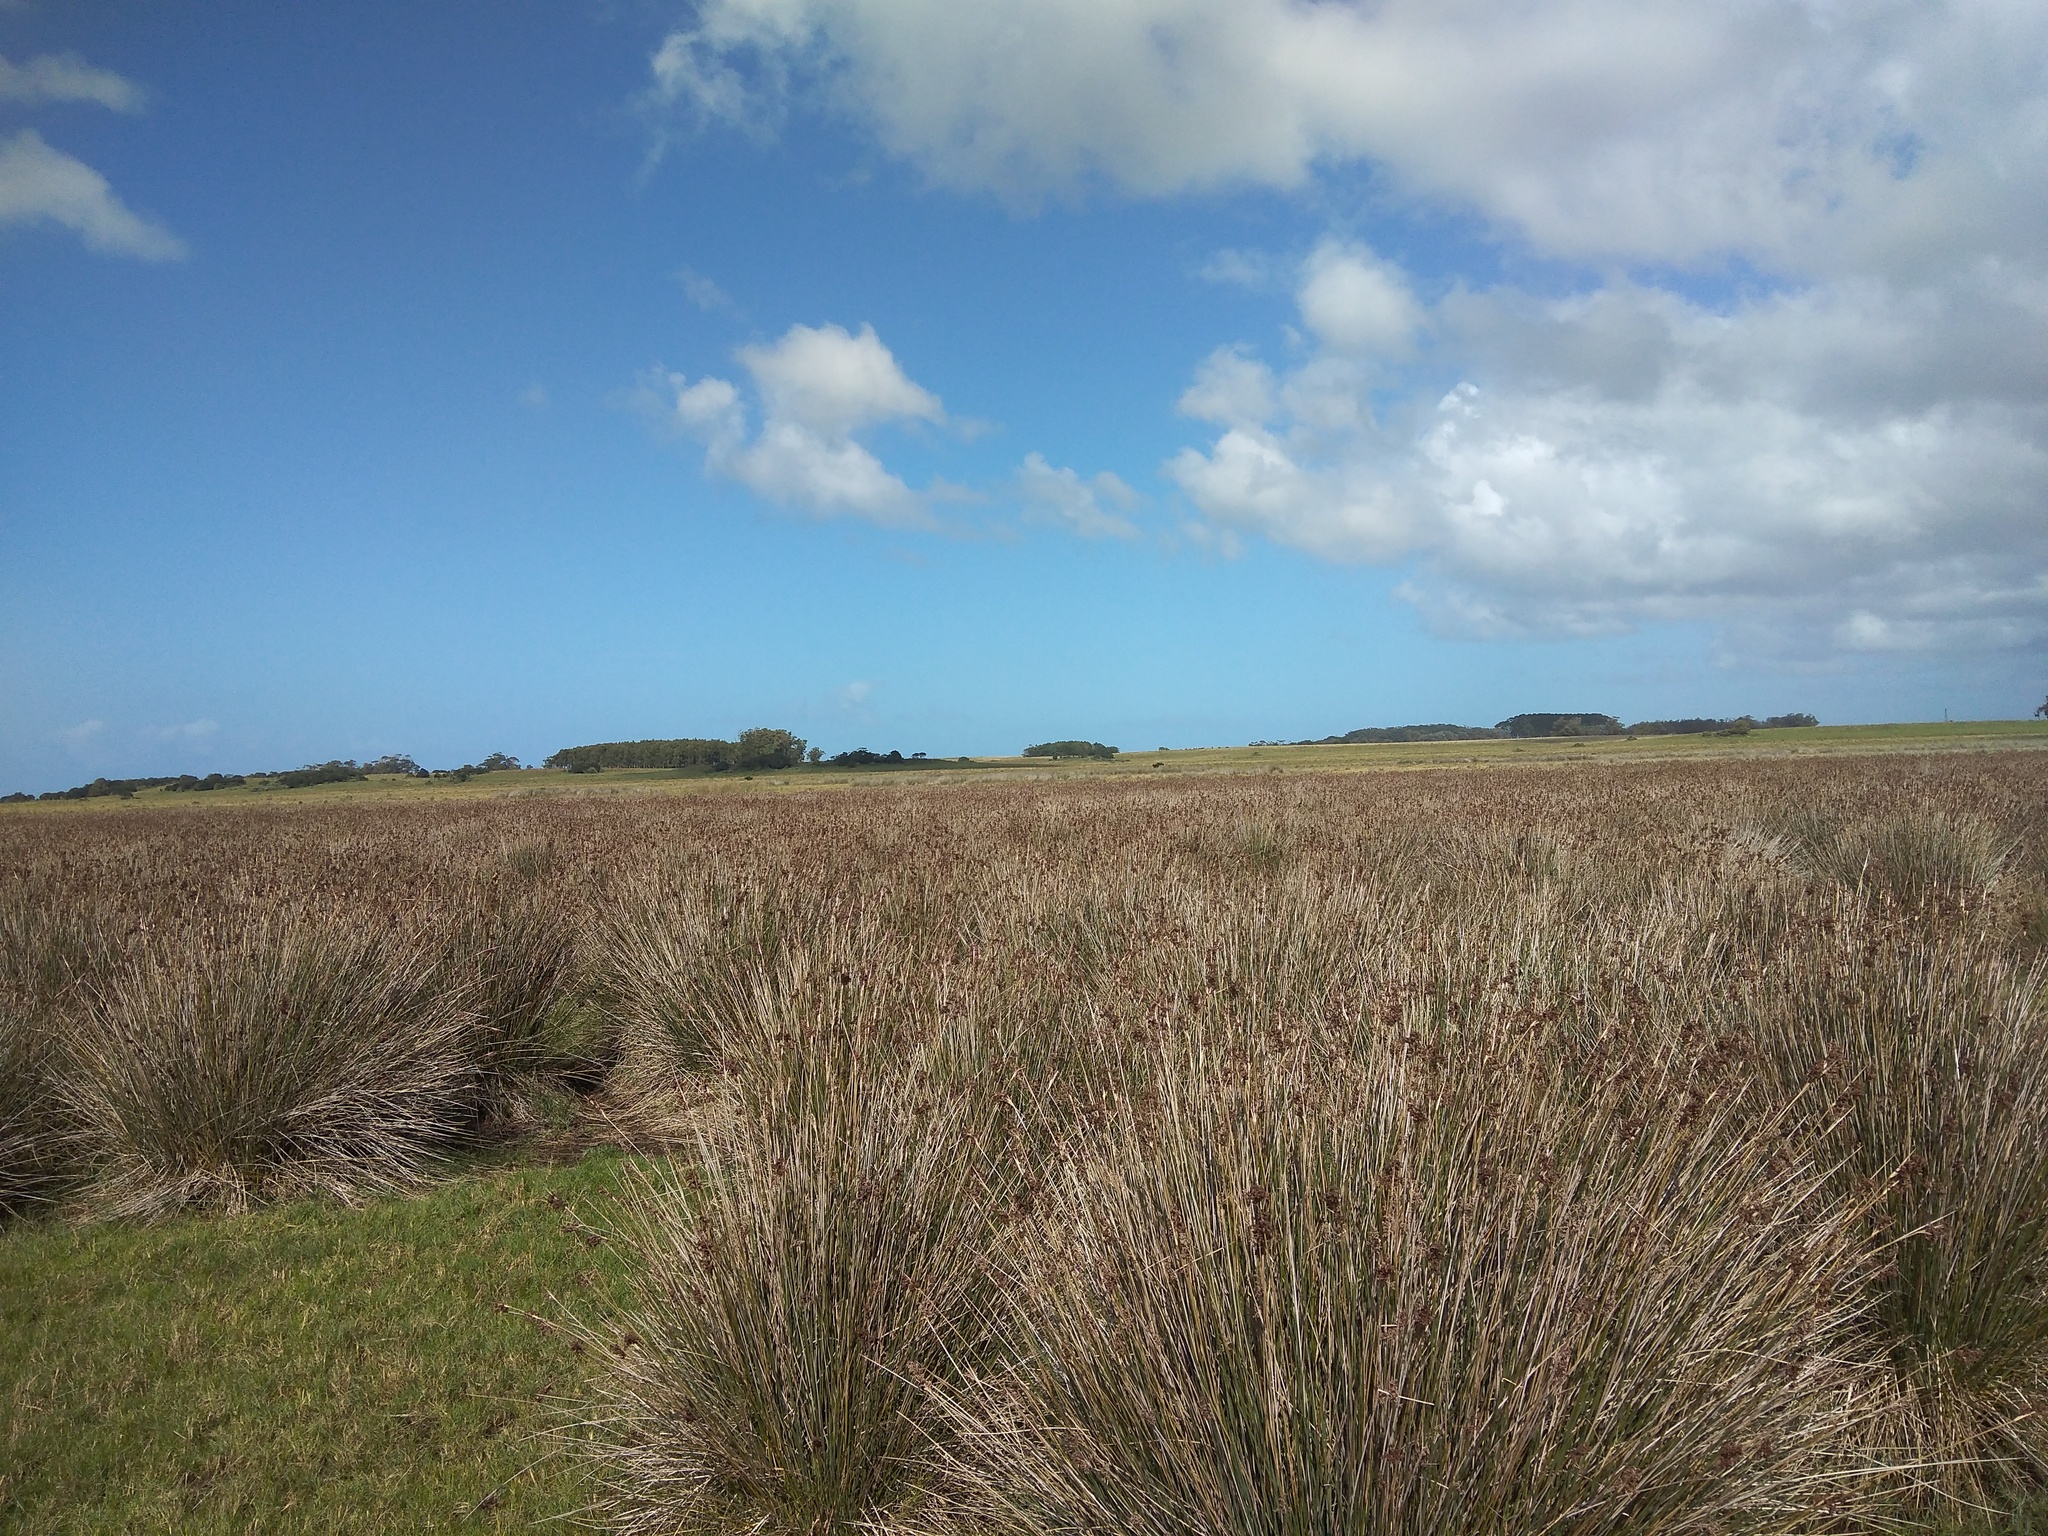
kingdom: Plantae
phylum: Tracheophyta
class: Liliopsida
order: Poales
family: Juncaceae
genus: Juncus
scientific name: Juncus acutus
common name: Sharp rush
